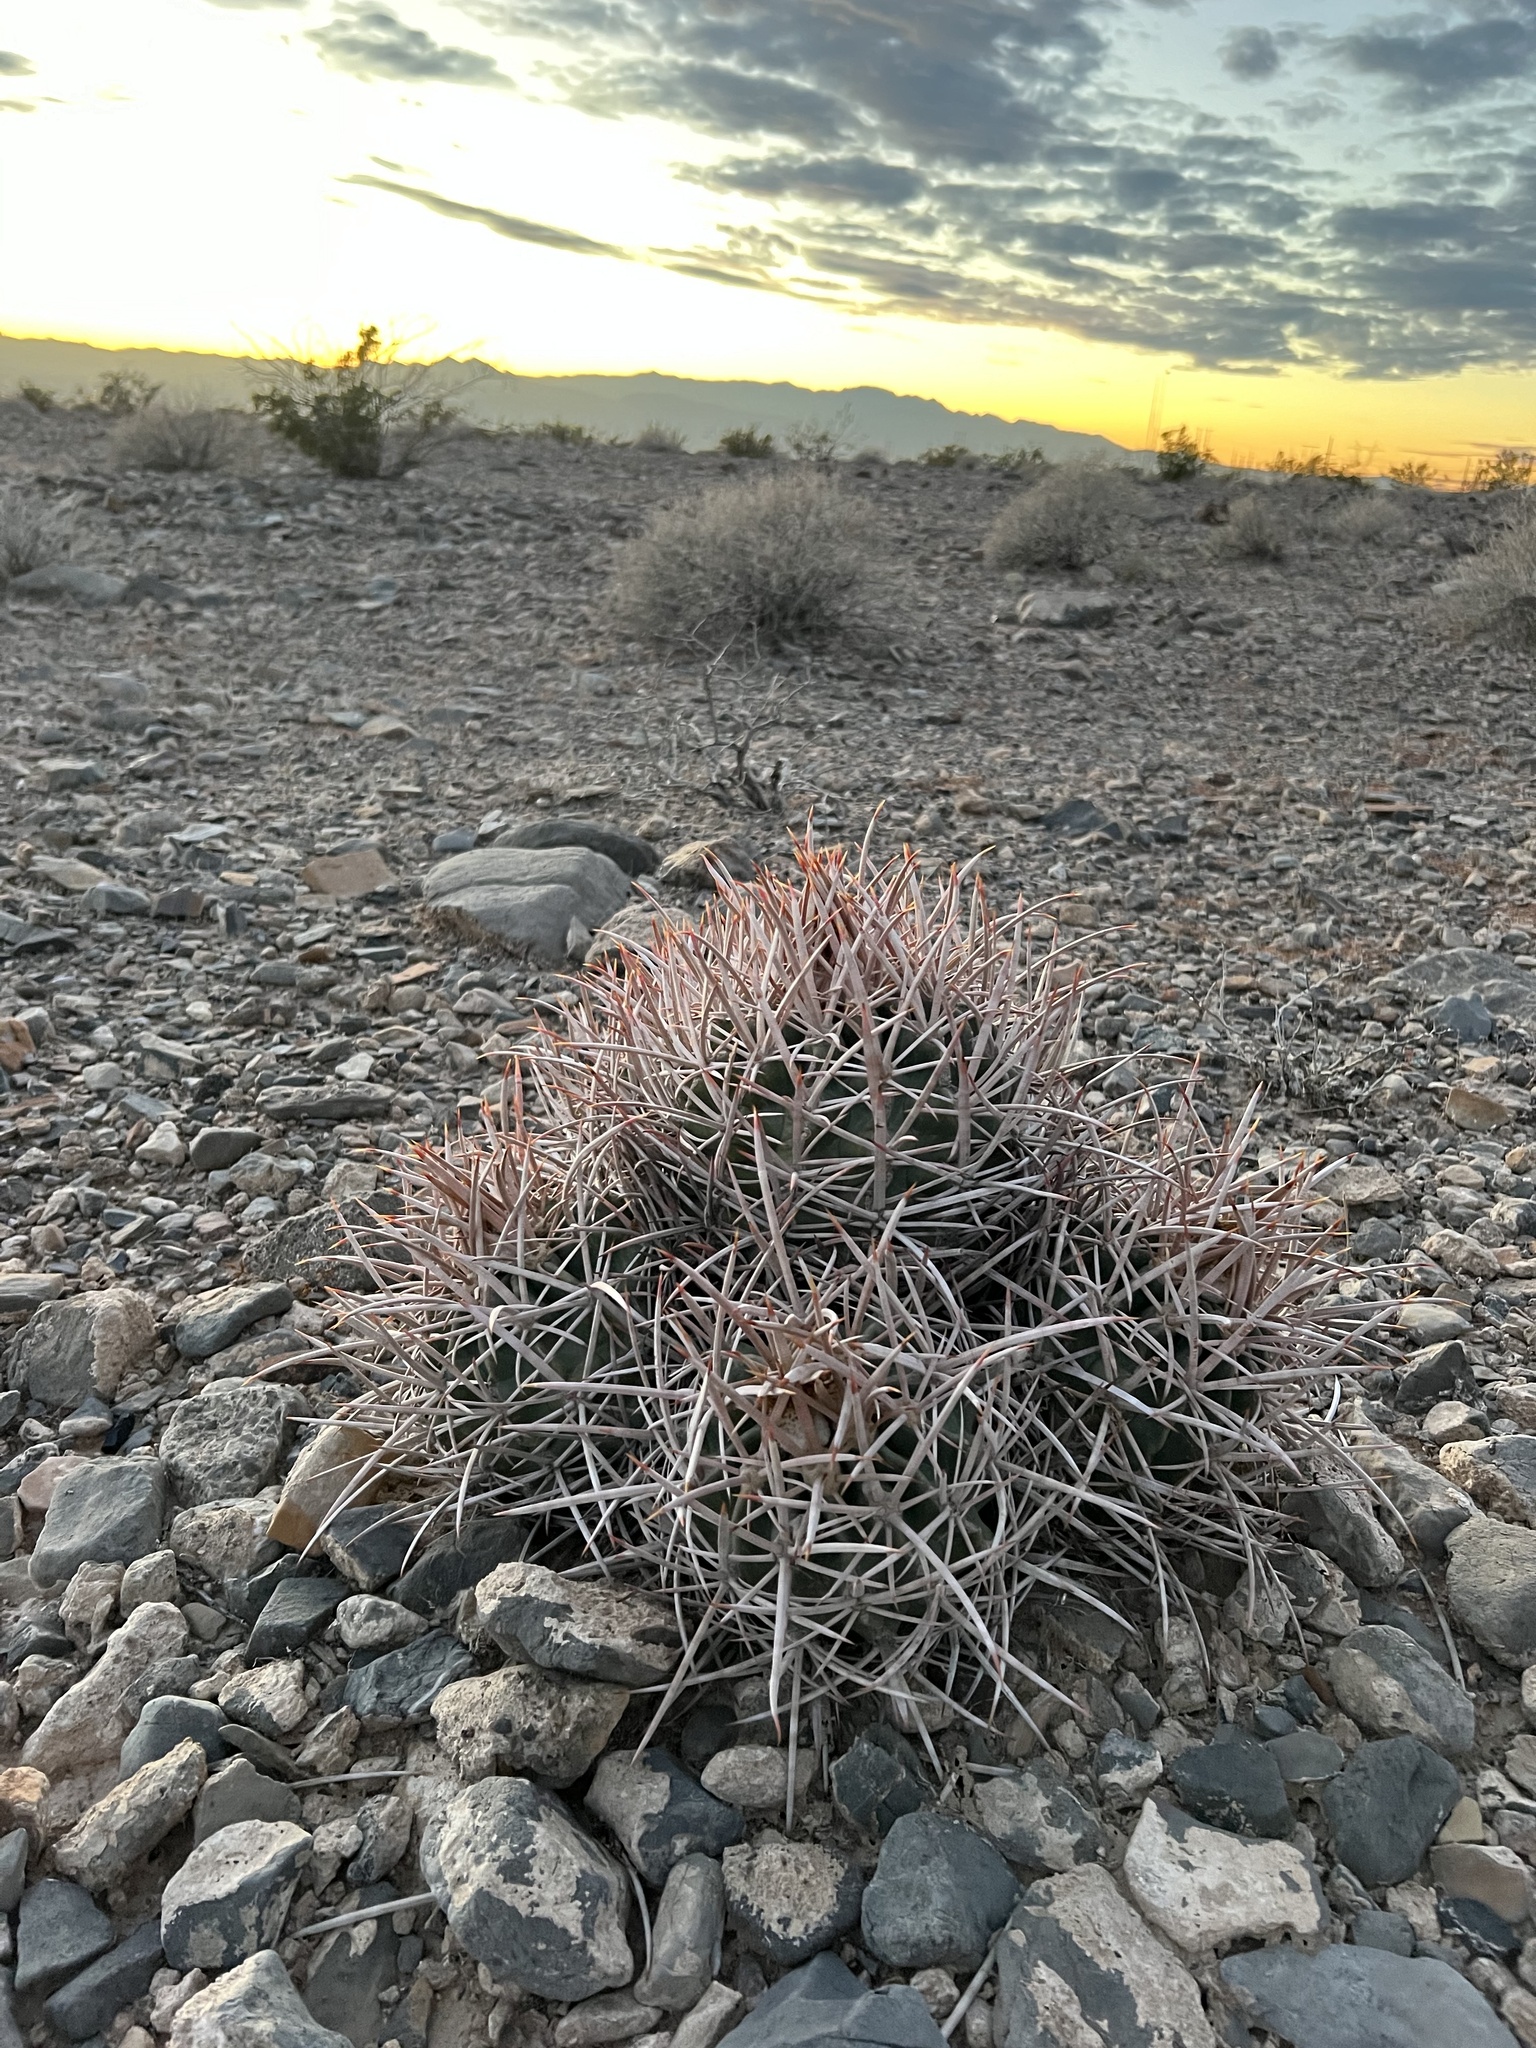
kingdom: Plantae
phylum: Tracheophyta
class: Magnoliopsida
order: Caryophyllales
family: Cactaceae
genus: Echinocactus
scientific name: Echinocactus polycephalus
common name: Cottontop cactus
